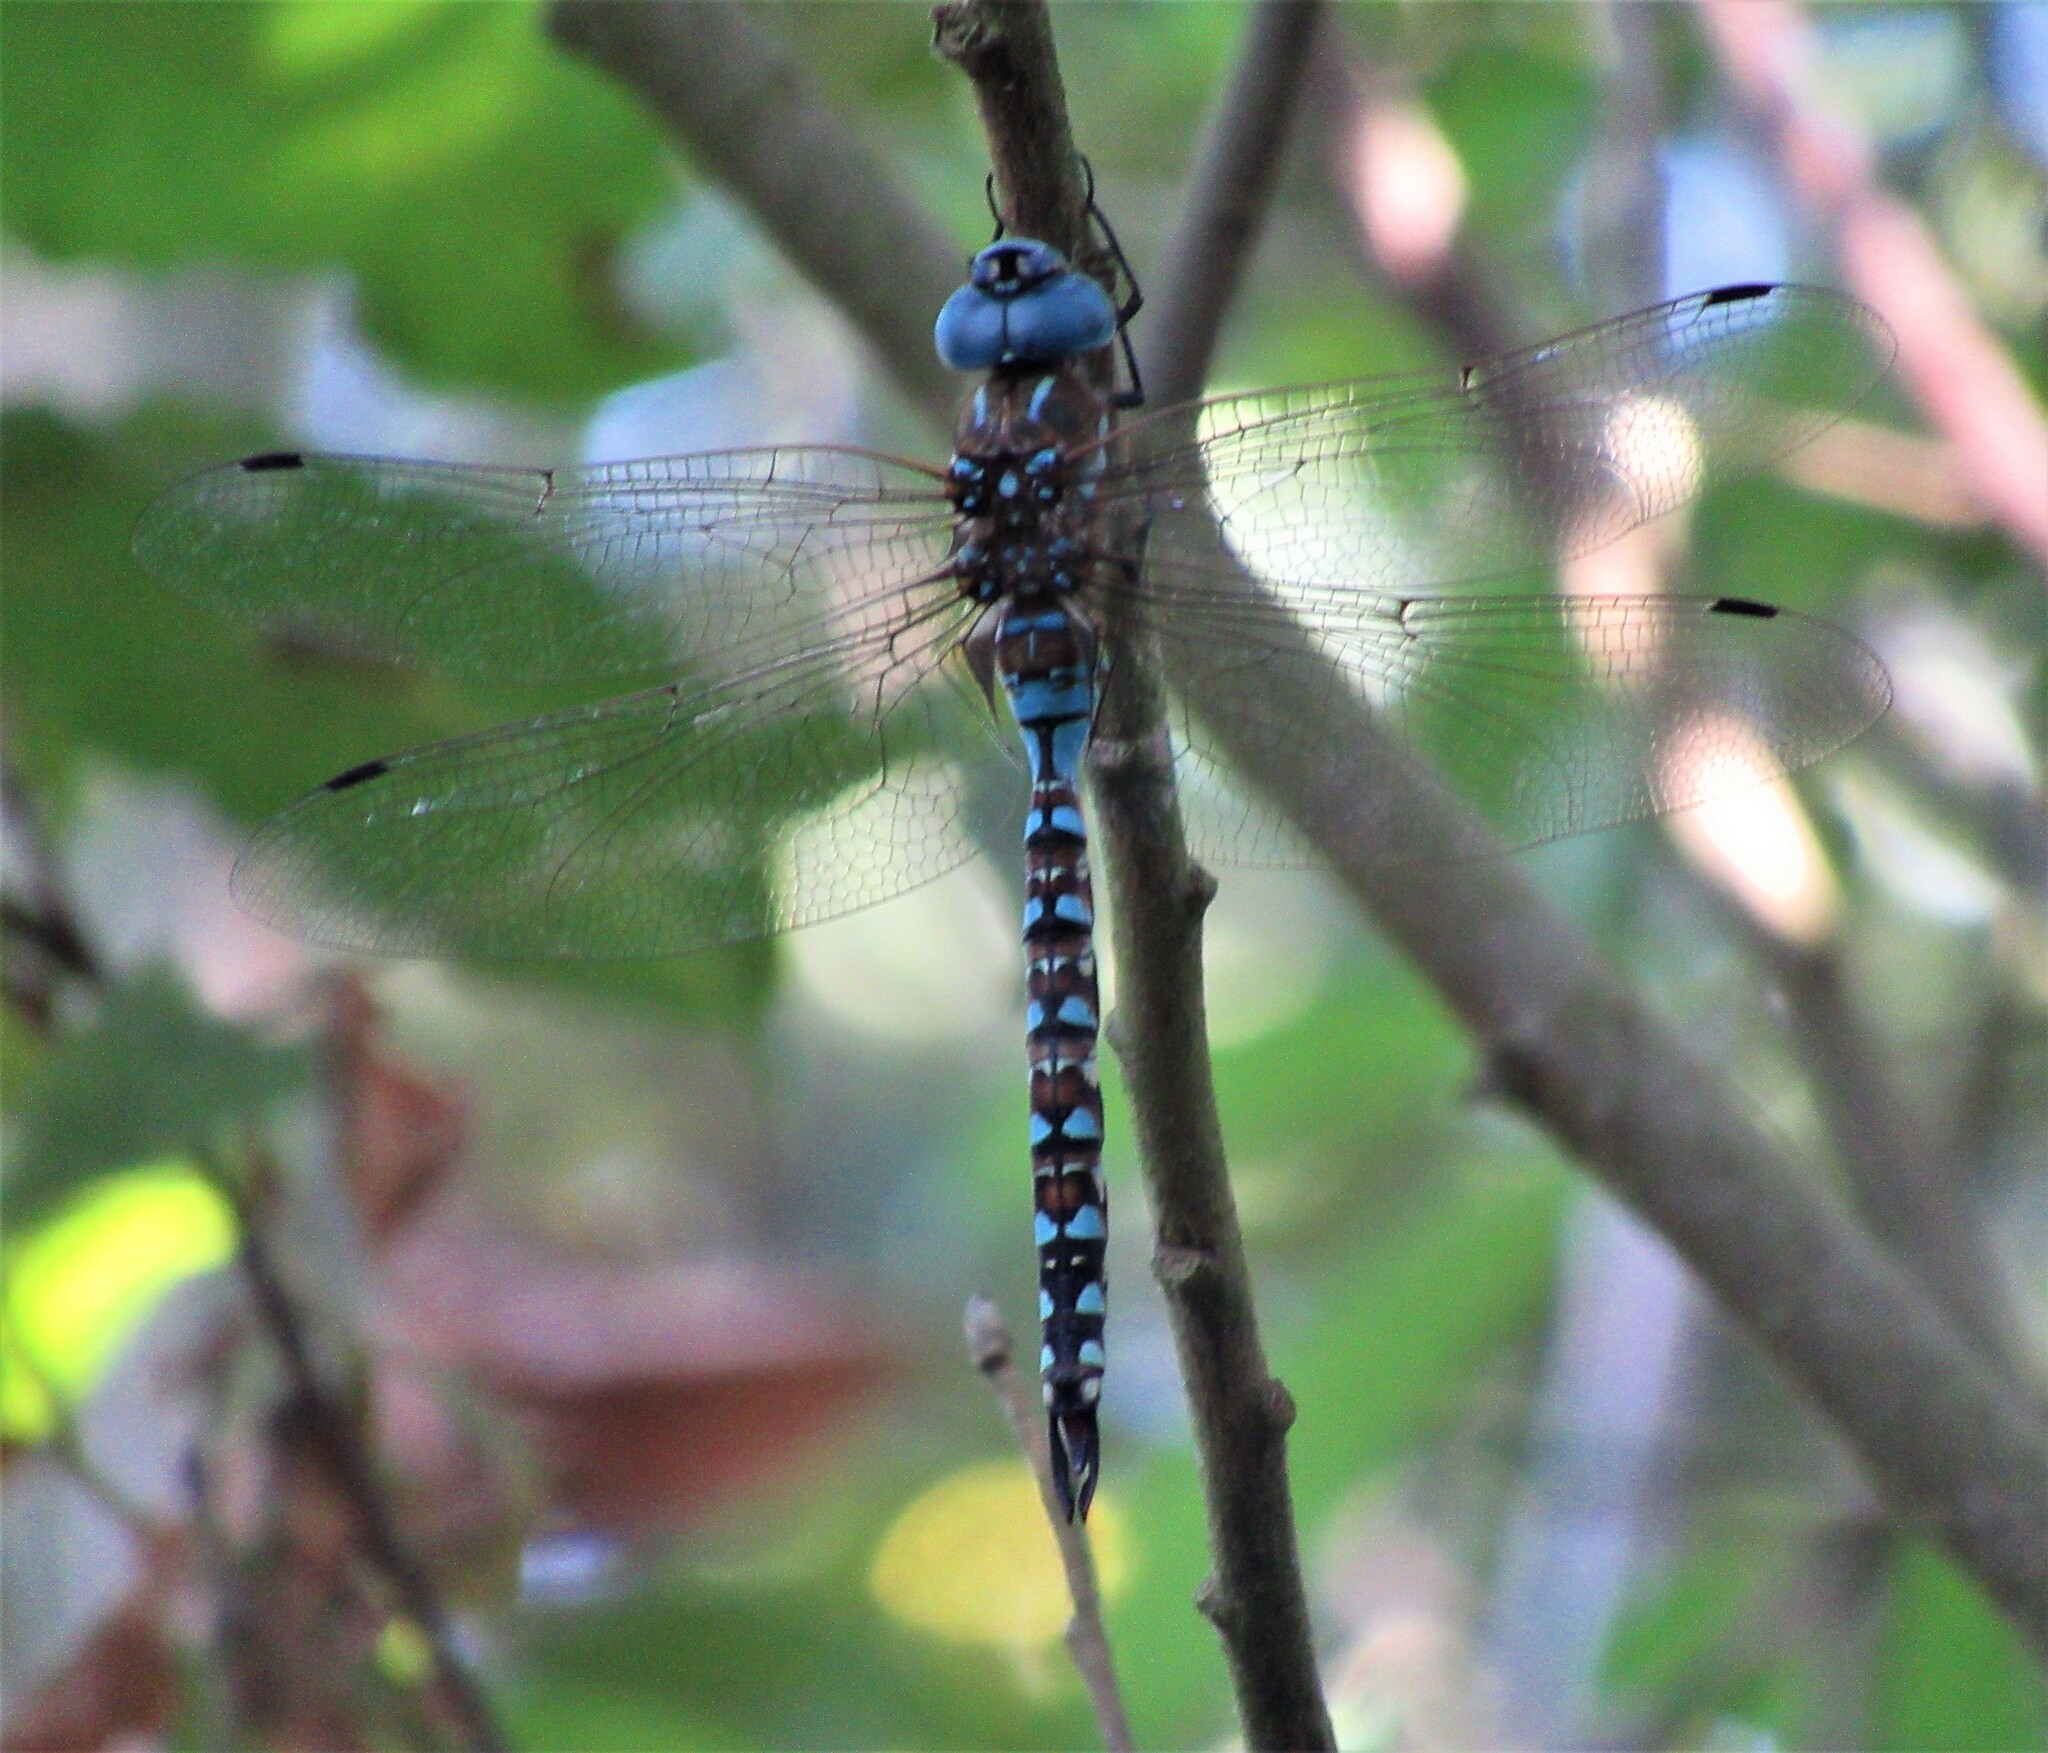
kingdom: Animalia
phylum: Arthropoda
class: Insecta
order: Odonata
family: Aeshnidae
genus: Rhionaeschna
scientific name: Rhionaeschna multicolor
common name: Blue-eyed darner
